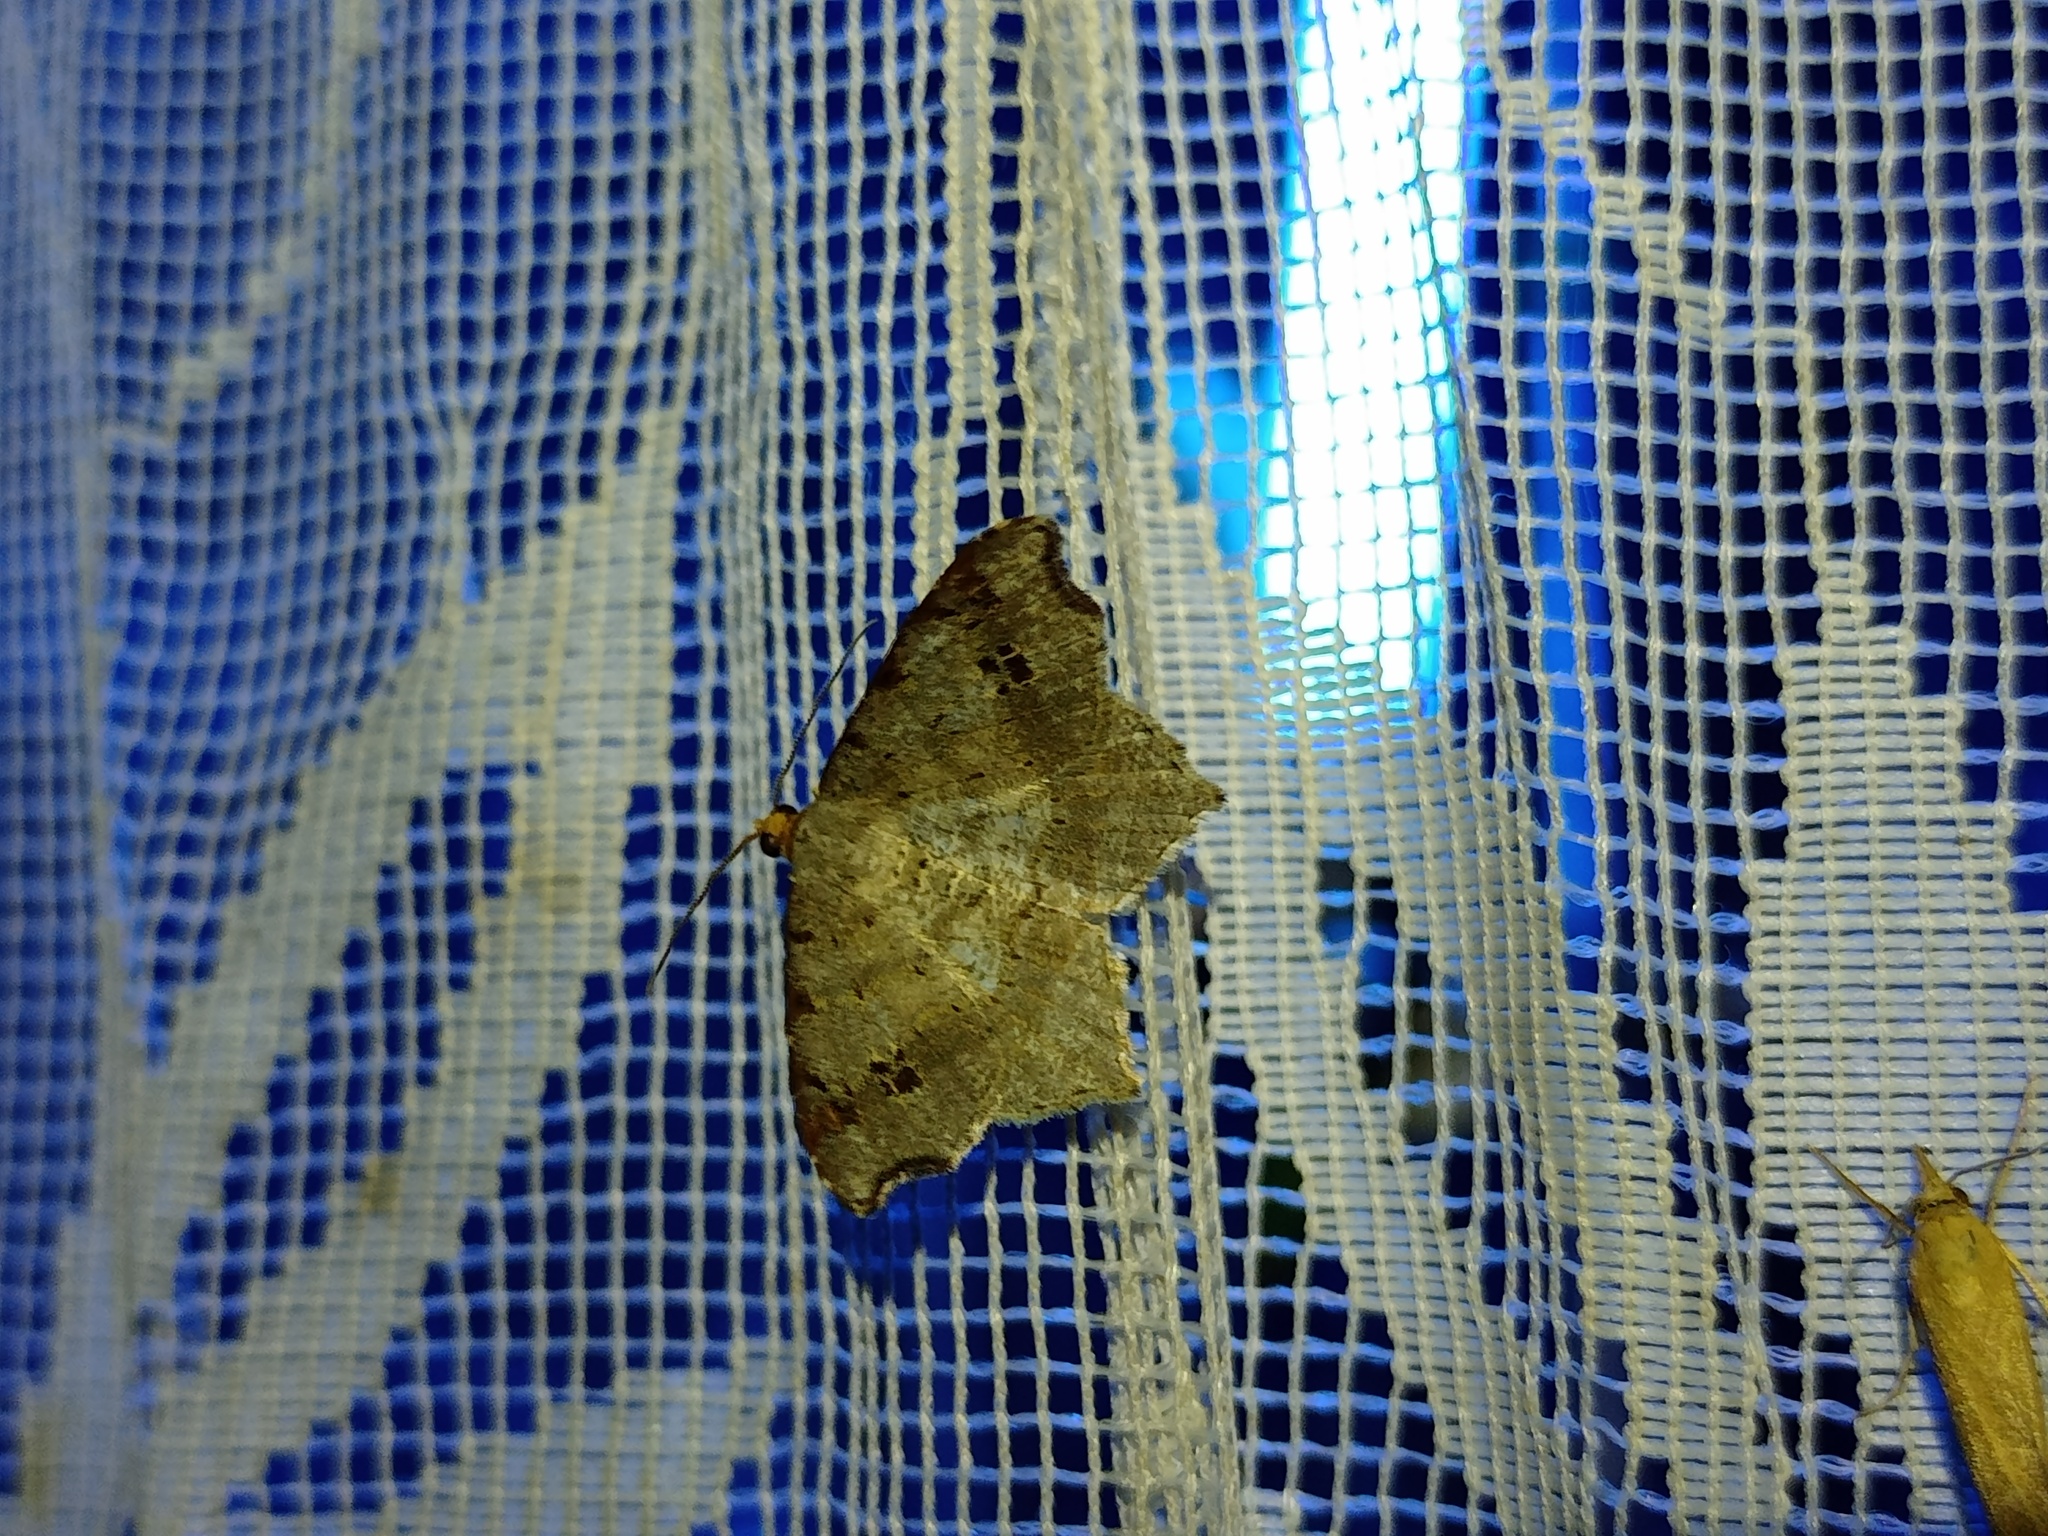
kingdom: Animalia
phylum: Arthropoda
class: Insecta
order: Lepidoptera
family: Geometridae
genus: Macaria
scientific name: Macaria alternata
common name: Sharp-angled peacock
